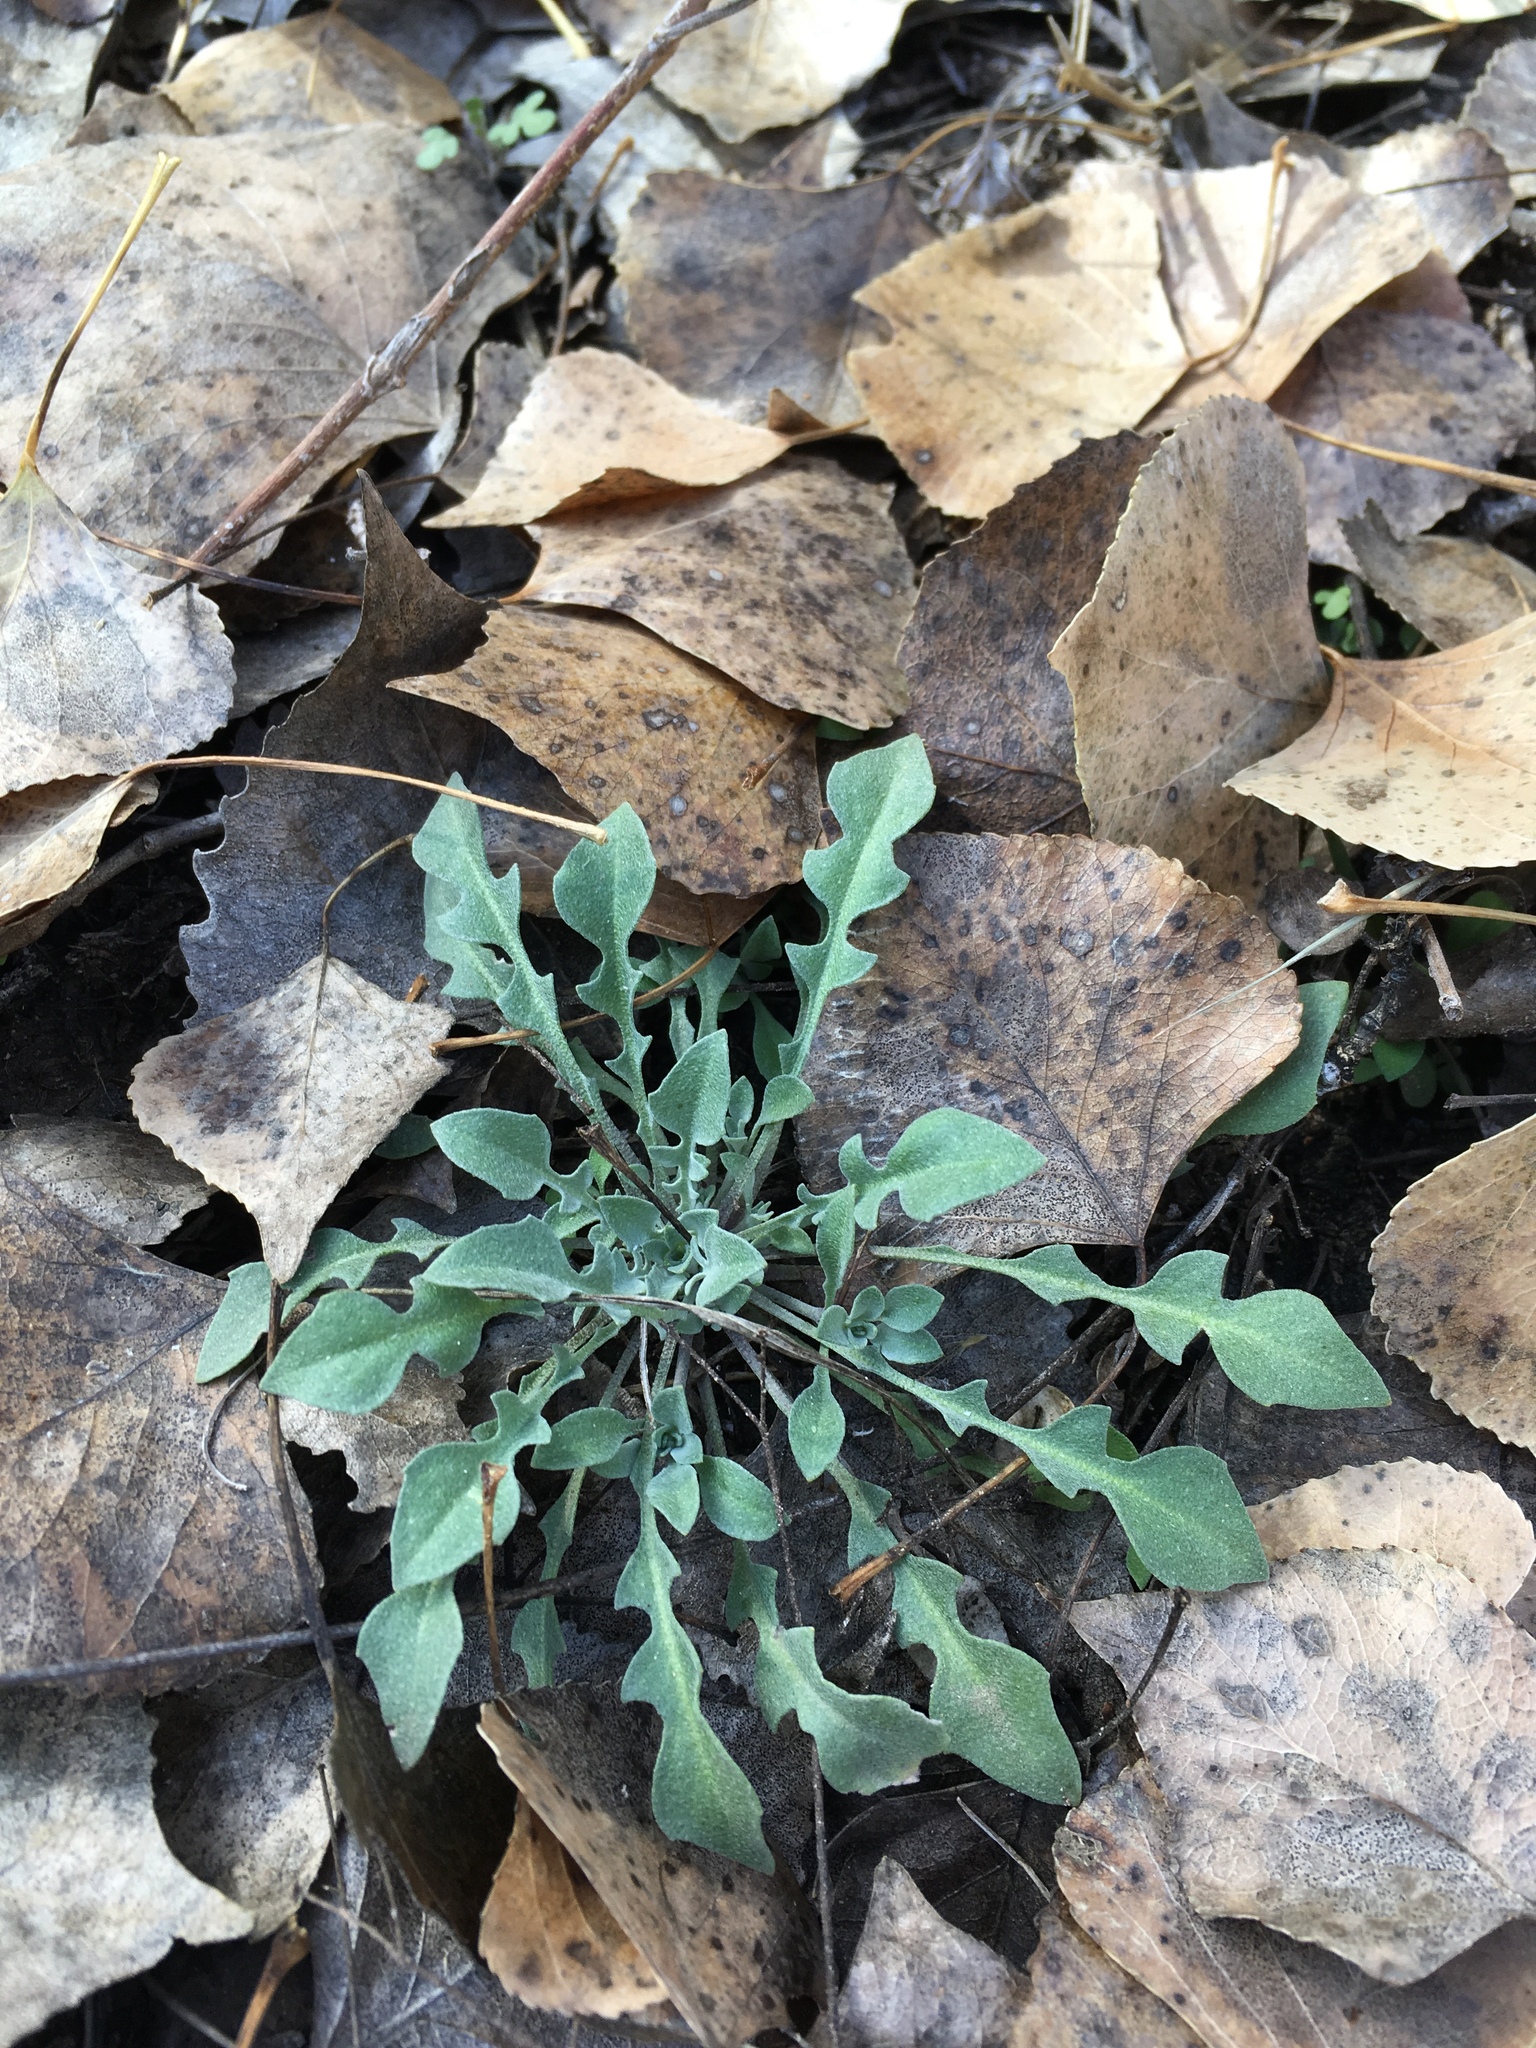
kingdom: Plantae
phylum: Tracheophyta
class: Magnoliopsida
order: Brassicales
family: Brassicaceae
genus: Physaria
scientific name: Physaria gordonii
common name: Gordon's bladderpod
